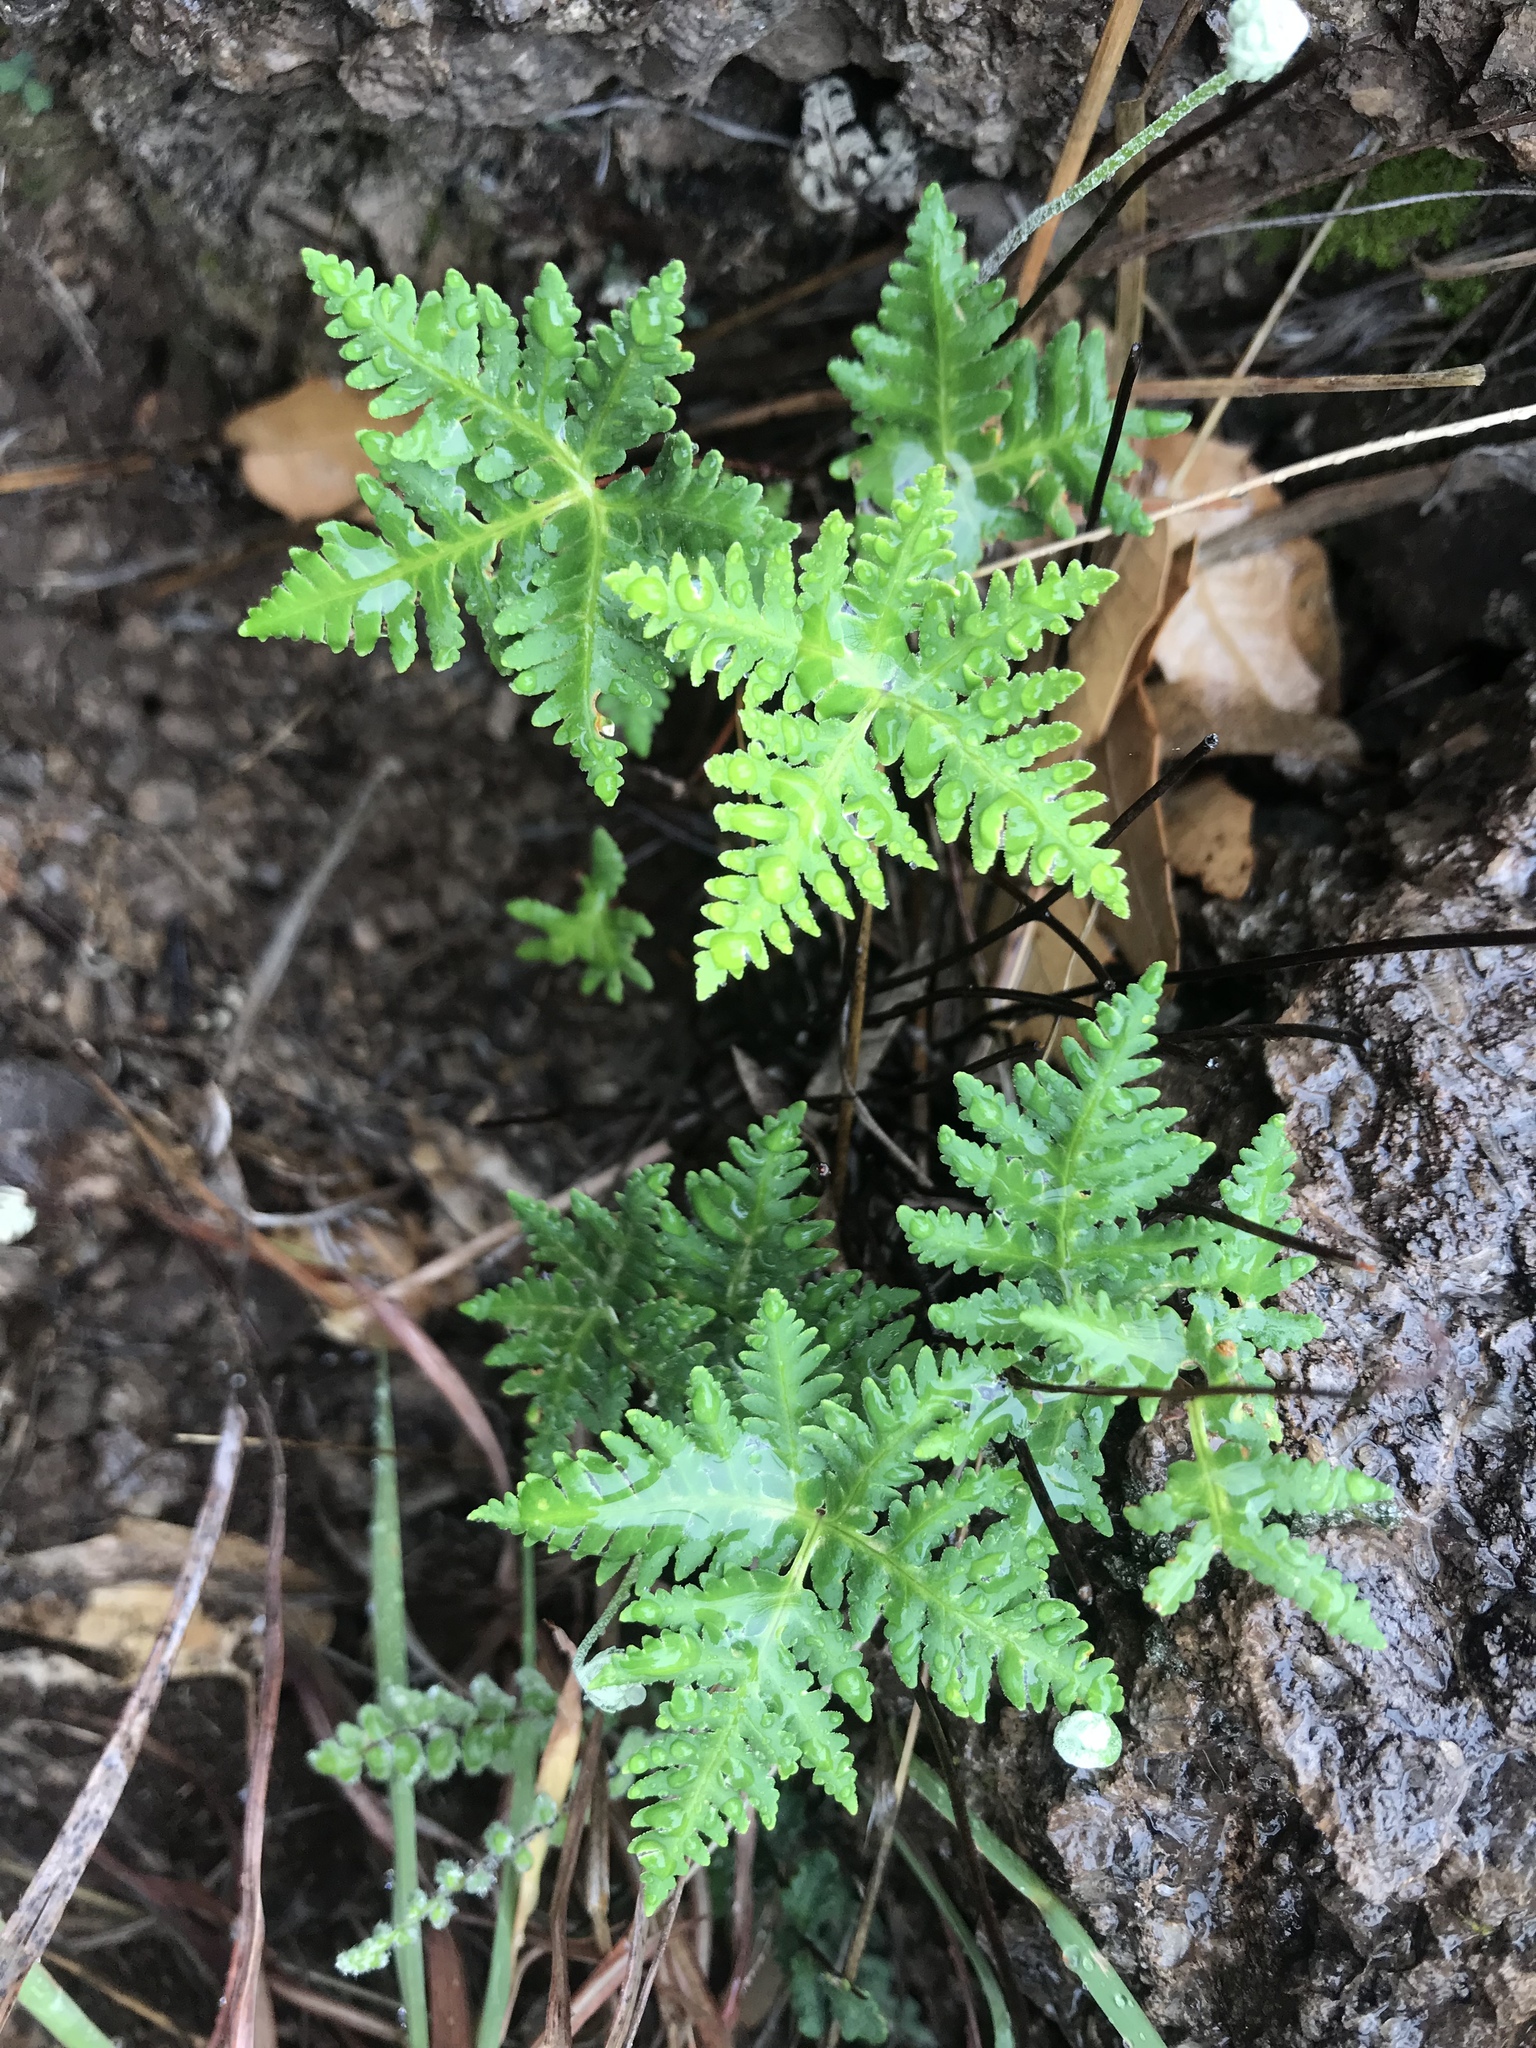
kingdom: Plantae
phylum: Tracheophyta
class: Polypodiopsida
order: Polypodiales
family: Pteridaceae
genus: Notholaena
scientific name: Notholaena standleyi
